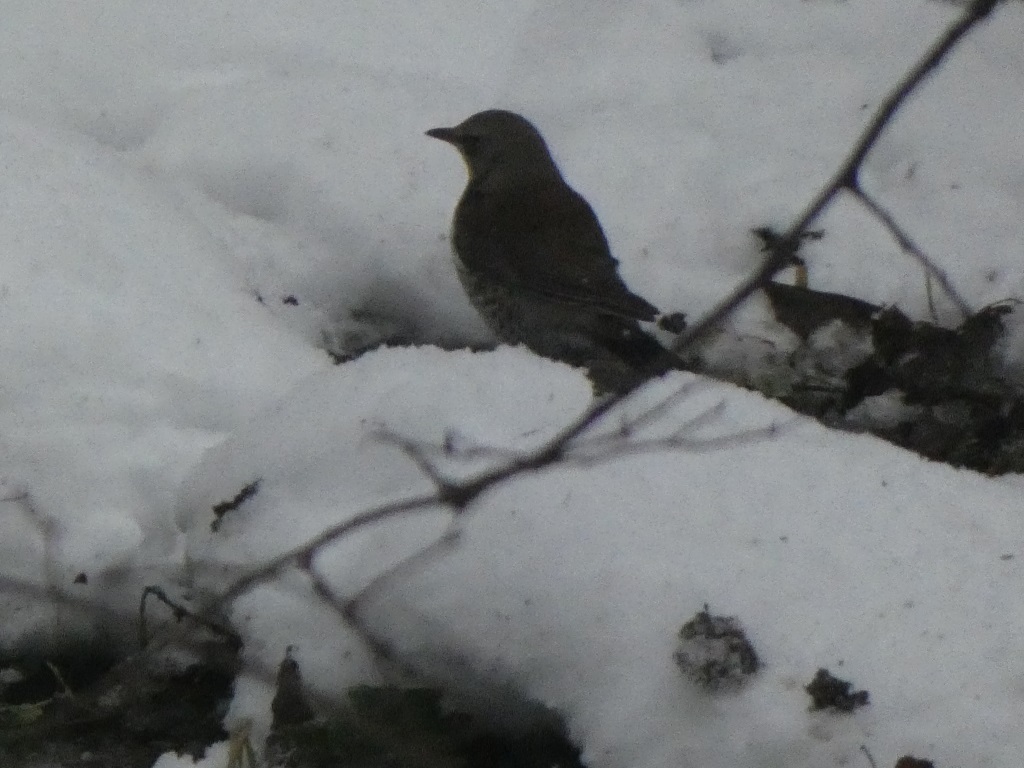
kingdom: Animalia
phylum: Chordata
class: Aves
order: Passeriformes
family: Turdidae
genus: Turdus
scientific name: Turdus pilaris
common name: Fieldfare
